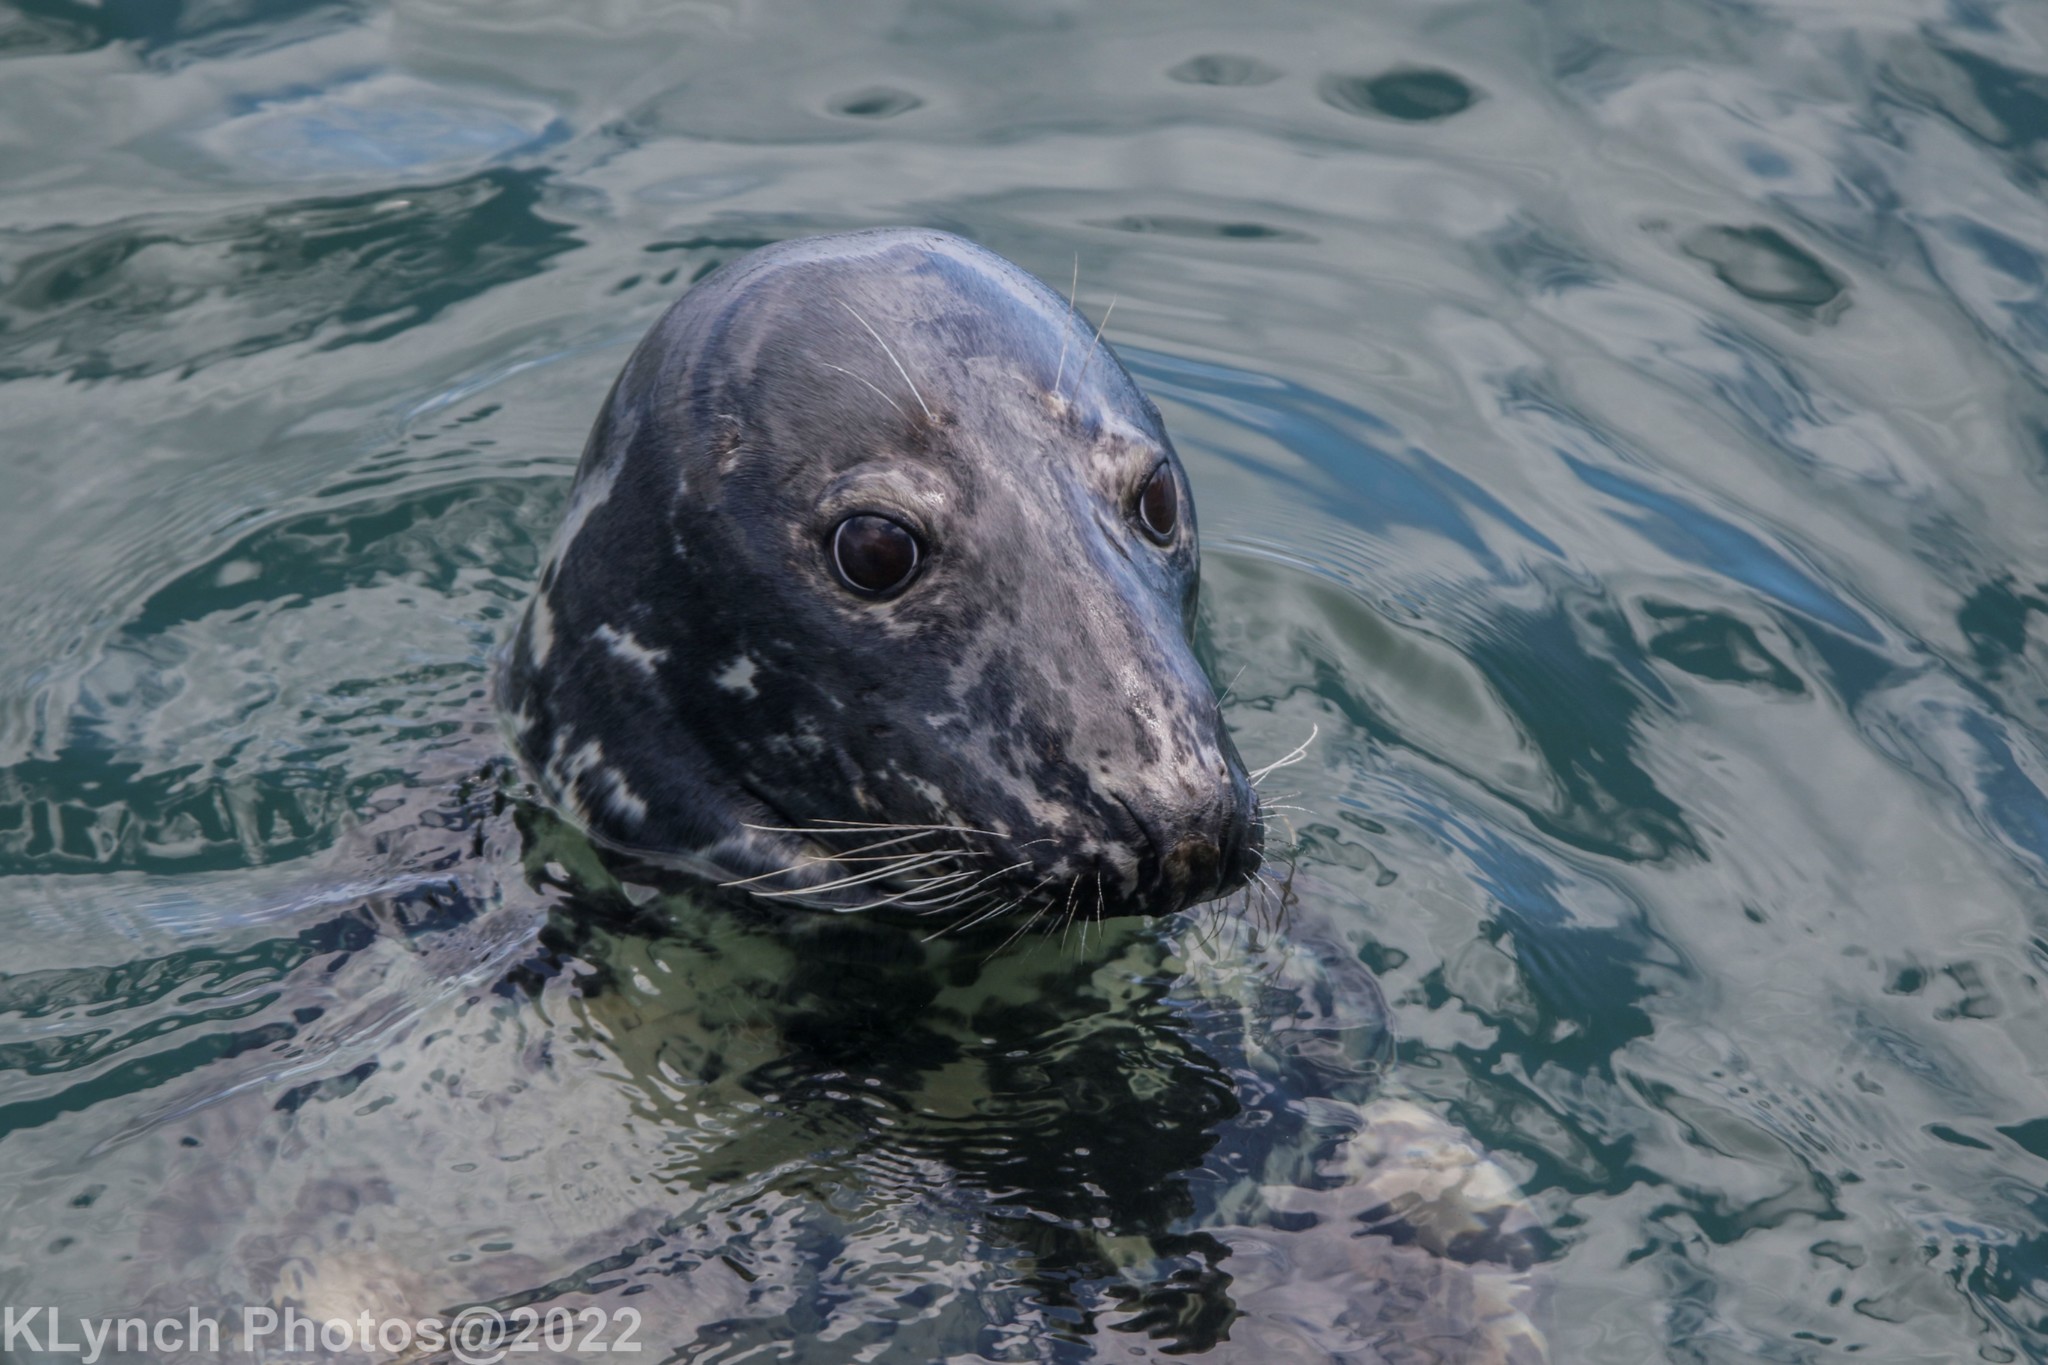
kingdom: Animalia
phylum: Chordata
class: Mammalia
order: Carnivora
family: Phocidae
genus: Halichoerus
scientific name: Halichoerus grypus
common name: Grey seal
